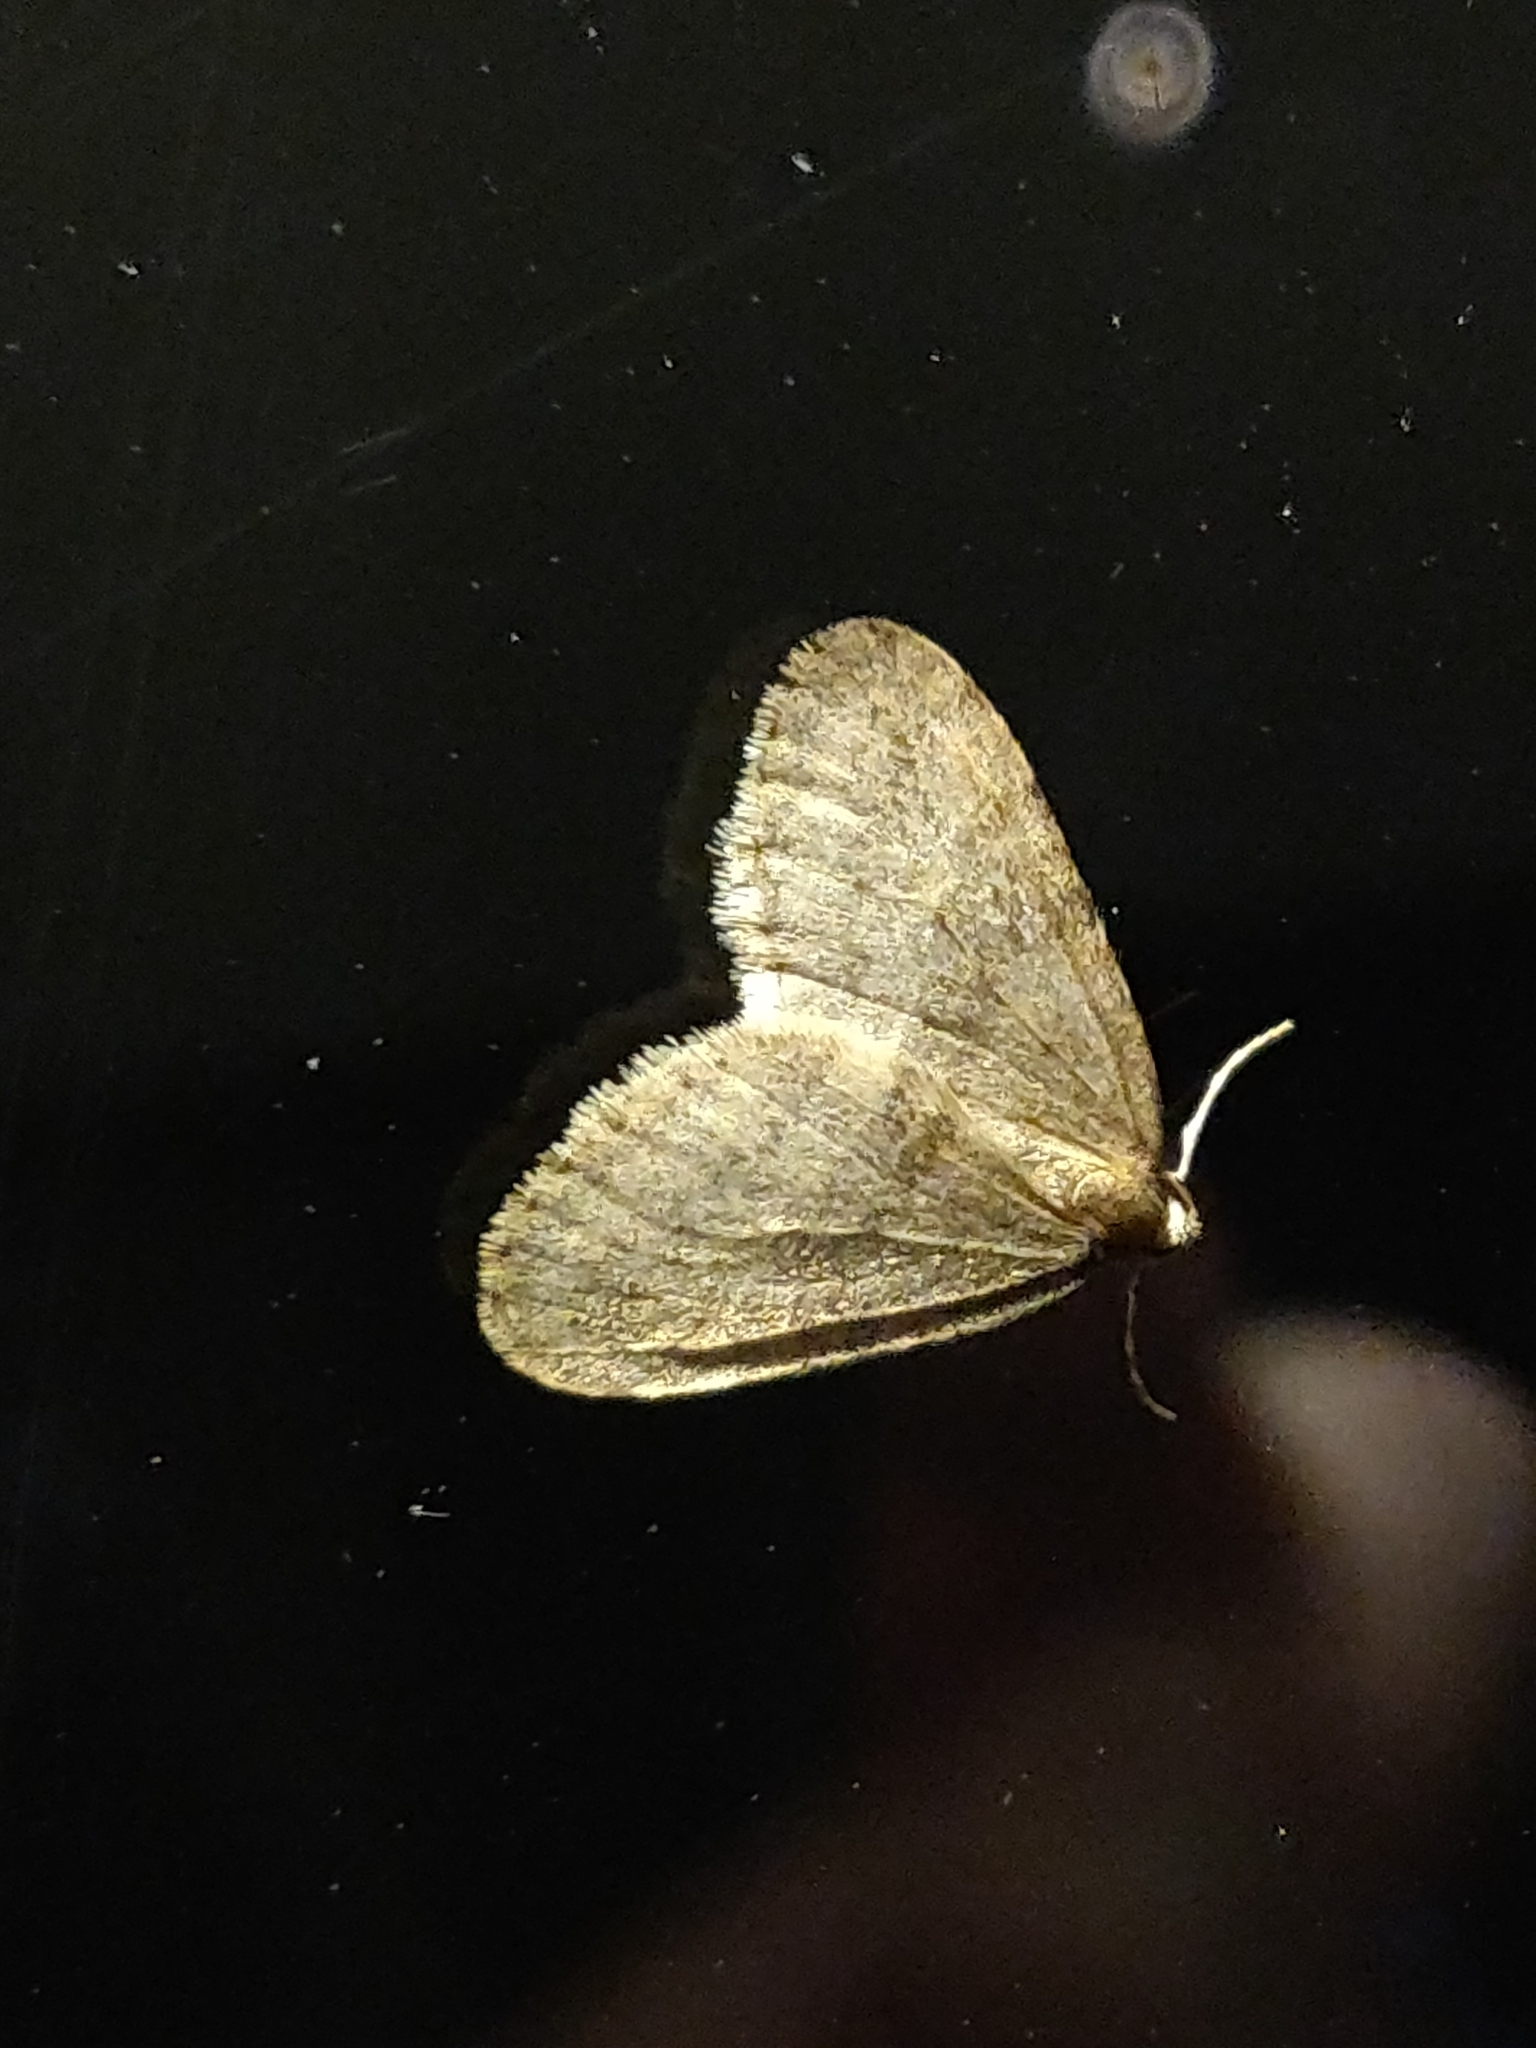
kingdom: Animalia
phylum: Arthropoda
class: Insecta
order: Lepidoptera
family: Geometridae
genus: Operophtera
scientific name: Operophtera brumata
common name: Winter moth
